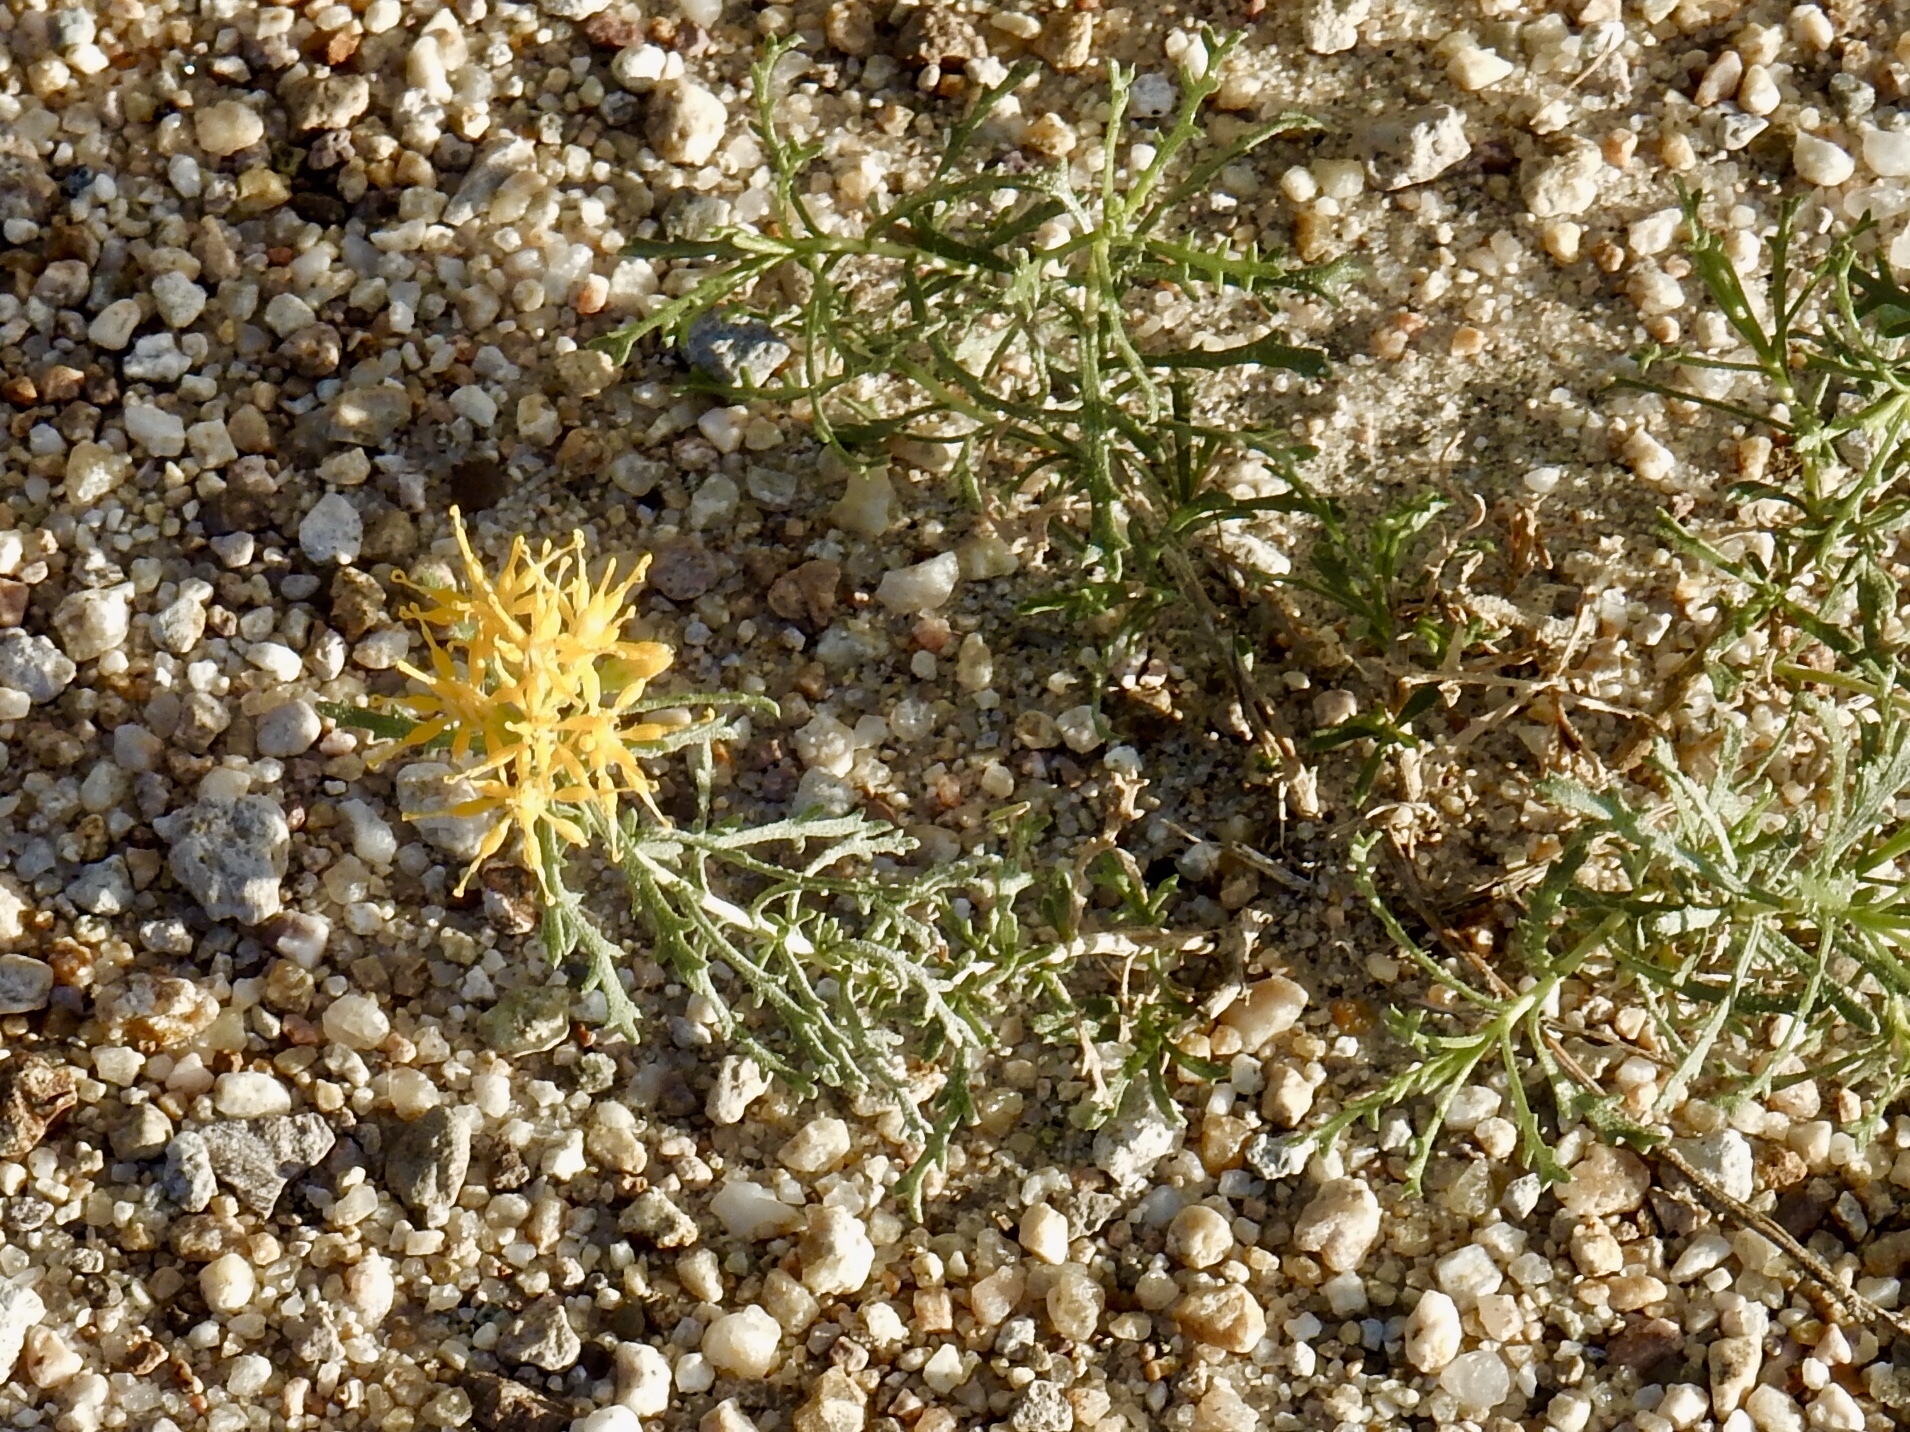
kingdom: Plantae
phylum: Tracheophyta
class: Magnoliopsida
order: Asterales
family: Asteraceae
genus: Isocoma
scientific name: Isocoma tenuisecta
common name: Burroweed
